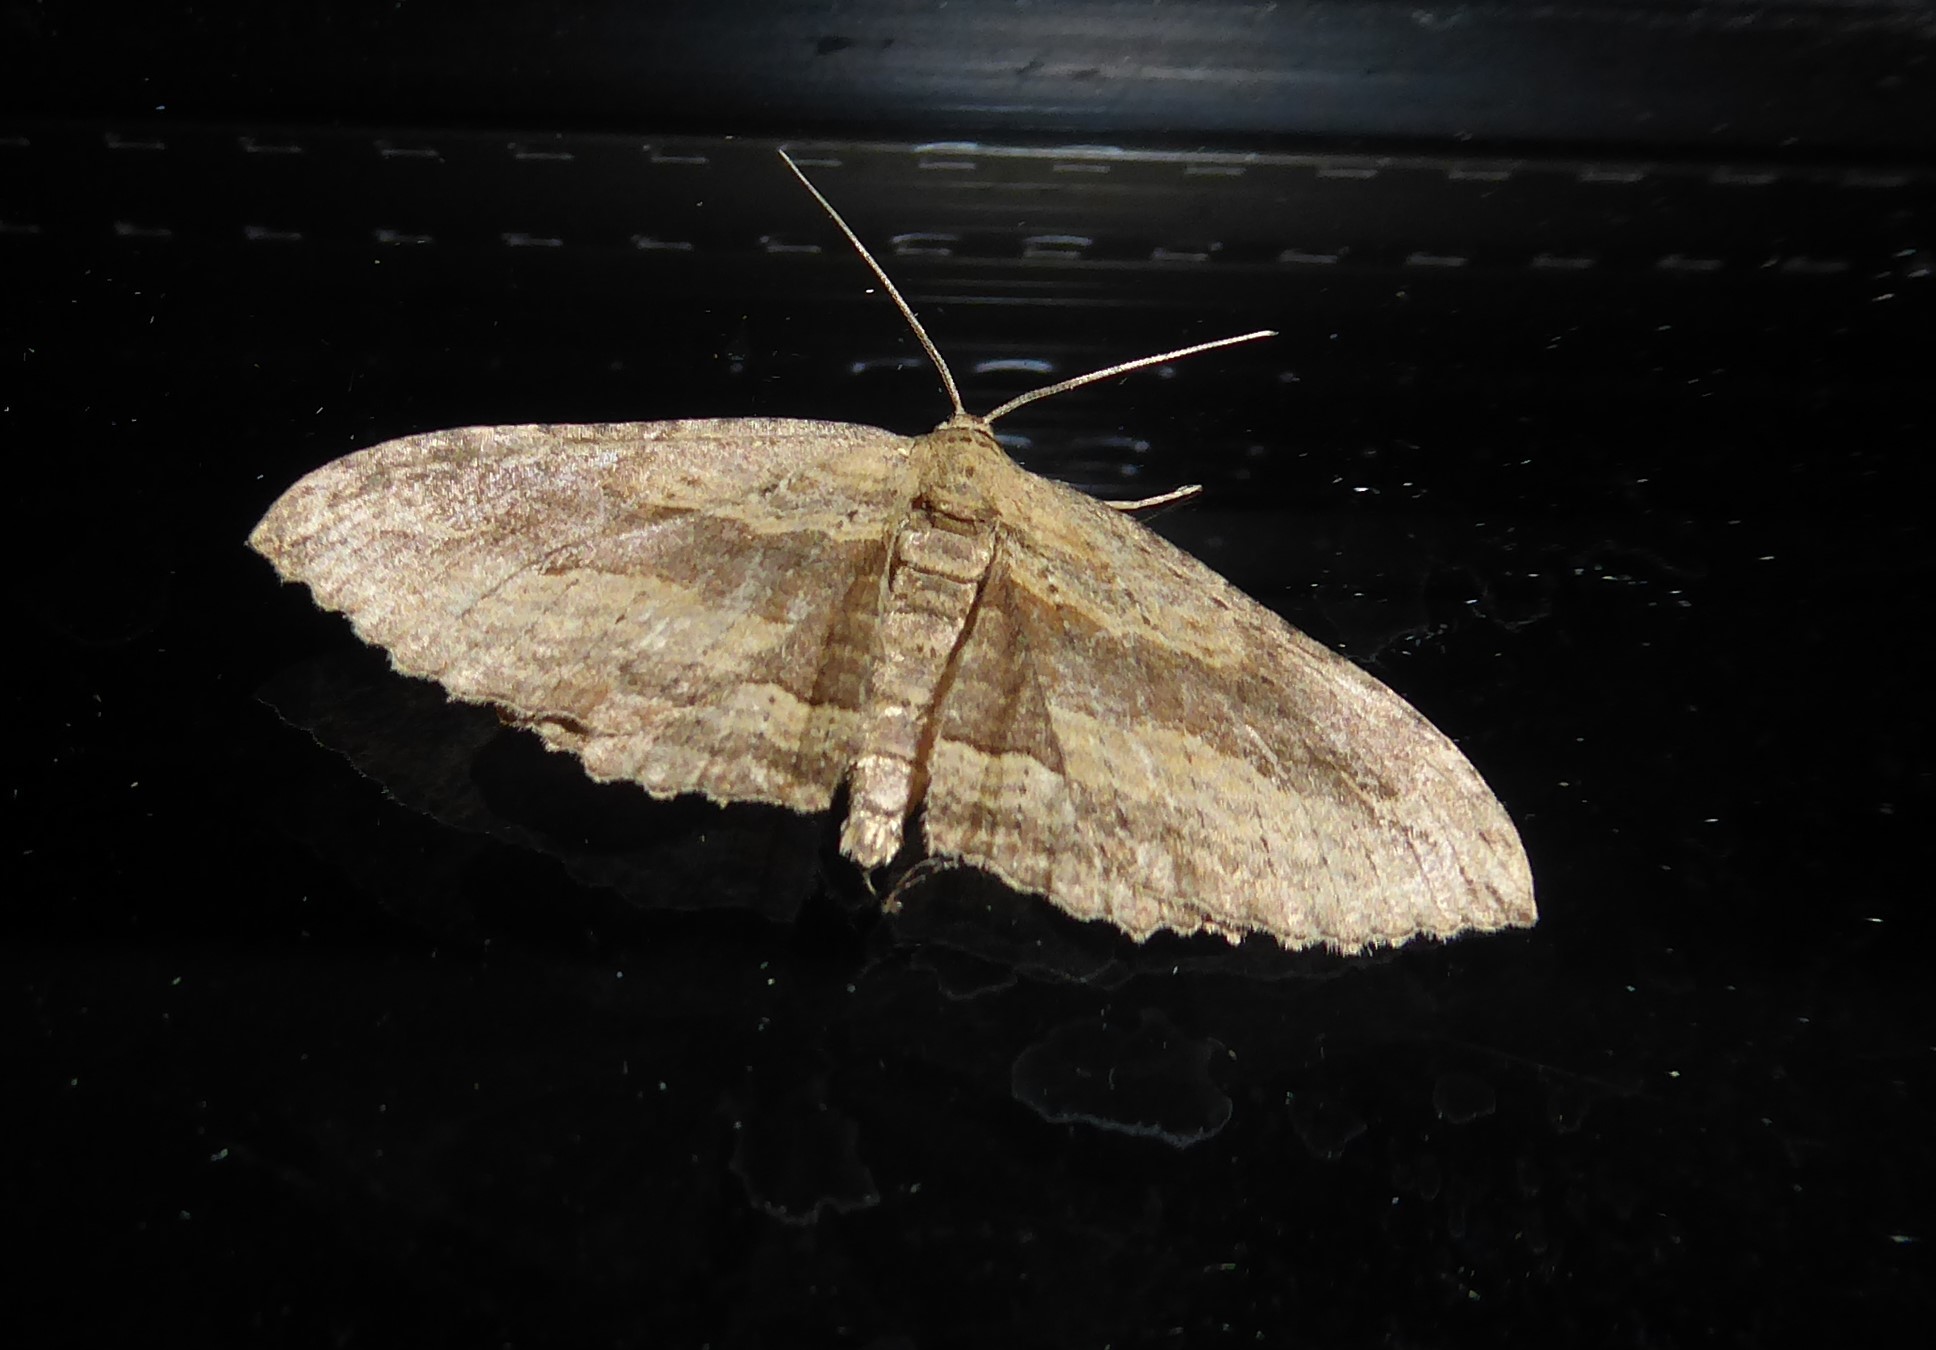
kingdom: Animalia
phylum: Arthropoda
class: Insecta
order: Lepidoptera
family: Geometridae
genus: Austrocidaria
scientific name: Austrocidaria gobiata
